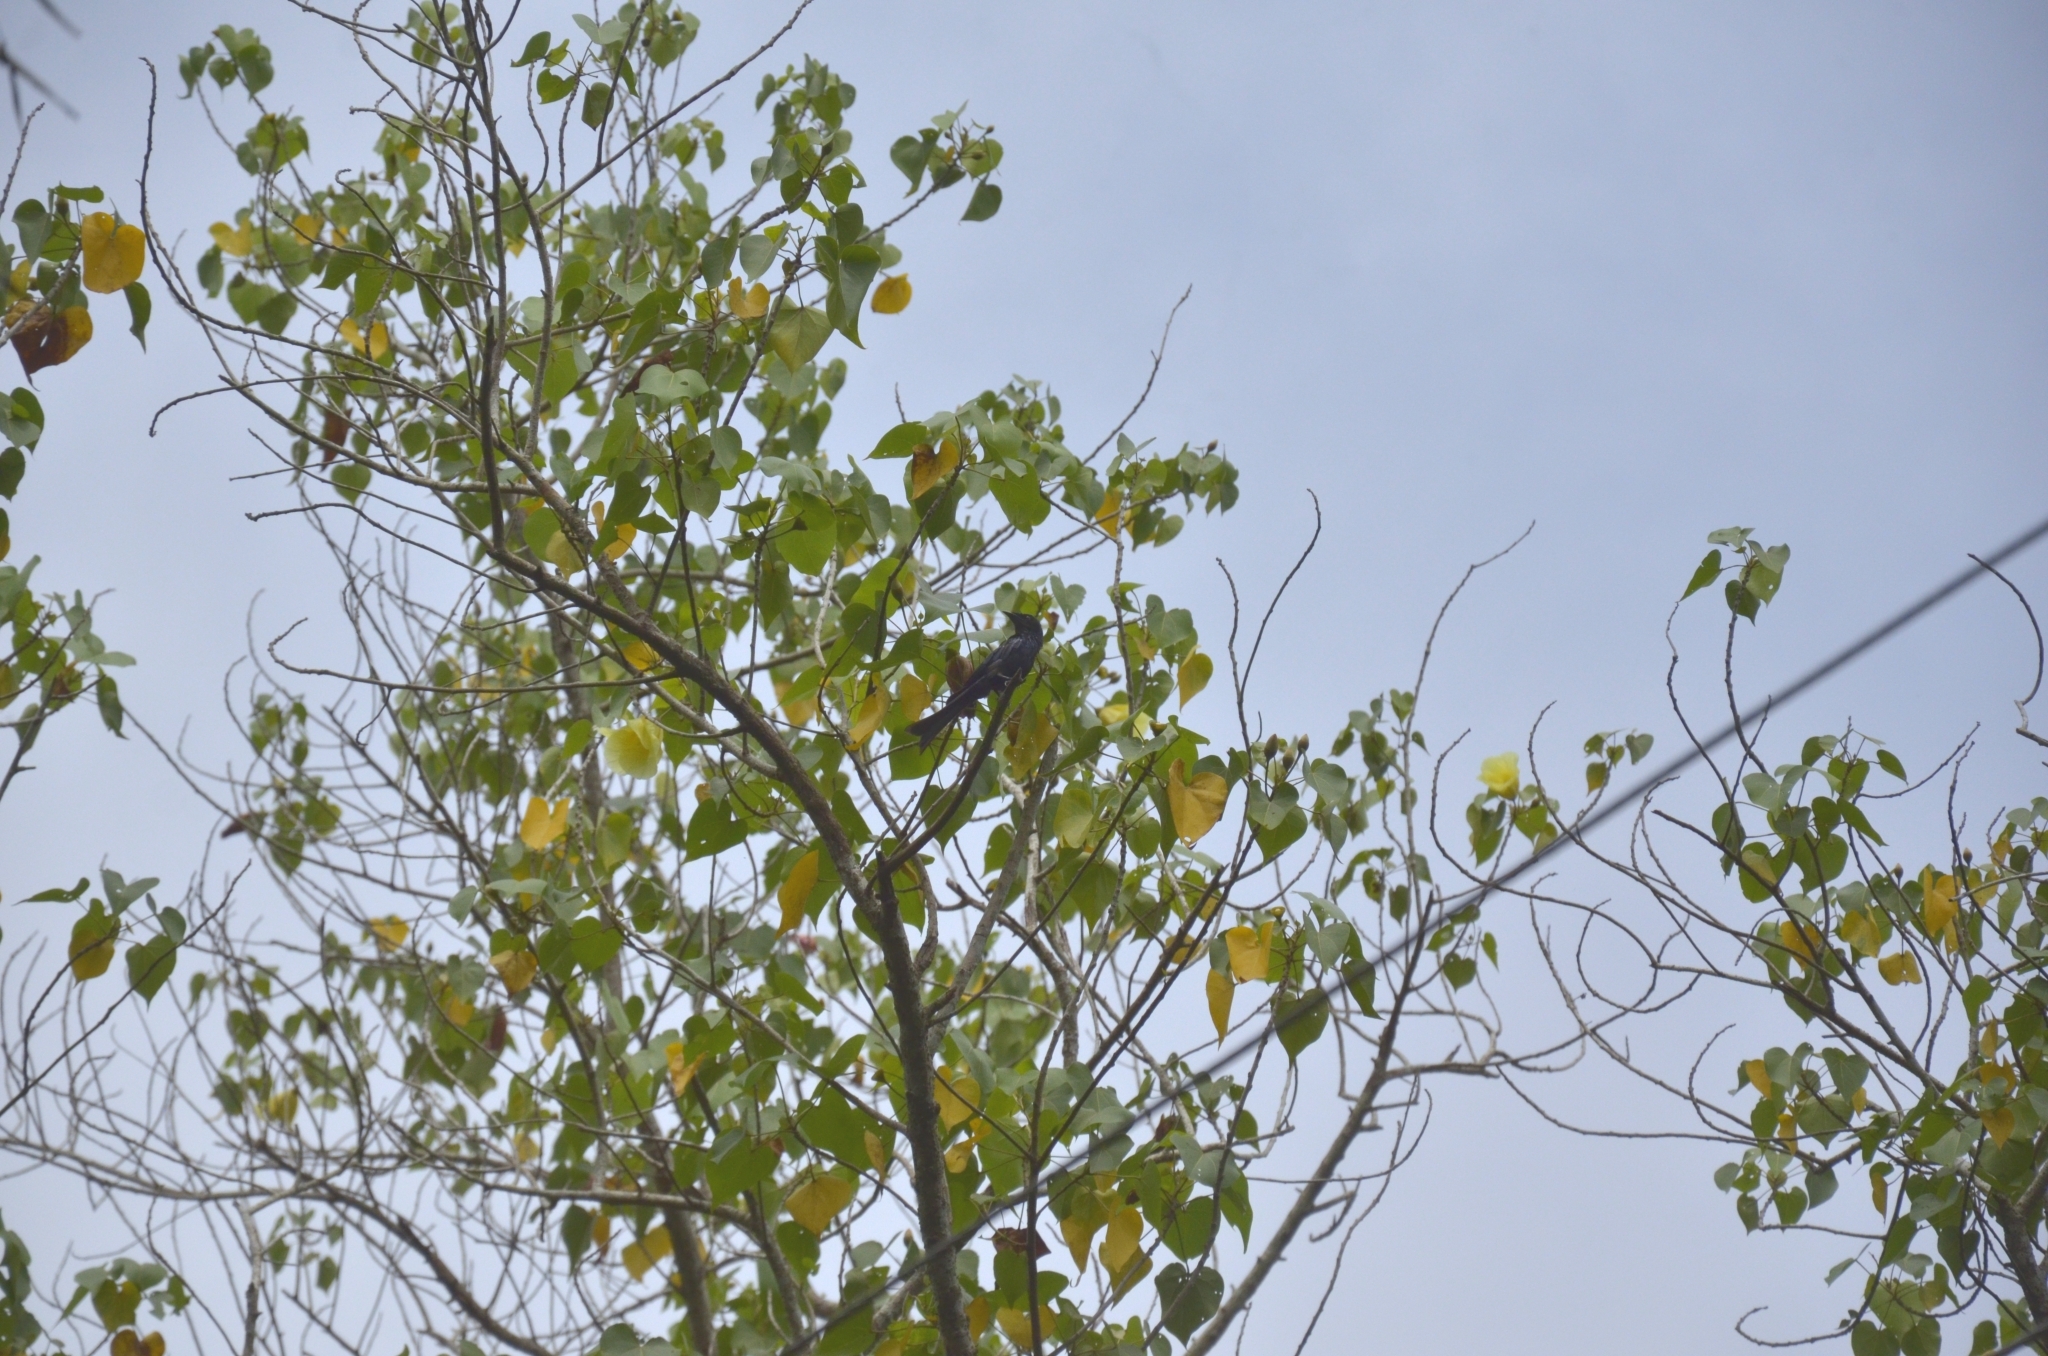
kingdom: Plantae
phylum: Tracheophyta
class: Magnoliopsida
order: Malvales
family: Malvaceae
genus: Thespesia
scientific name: Thespesia populnea
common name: Seaside mahoe
